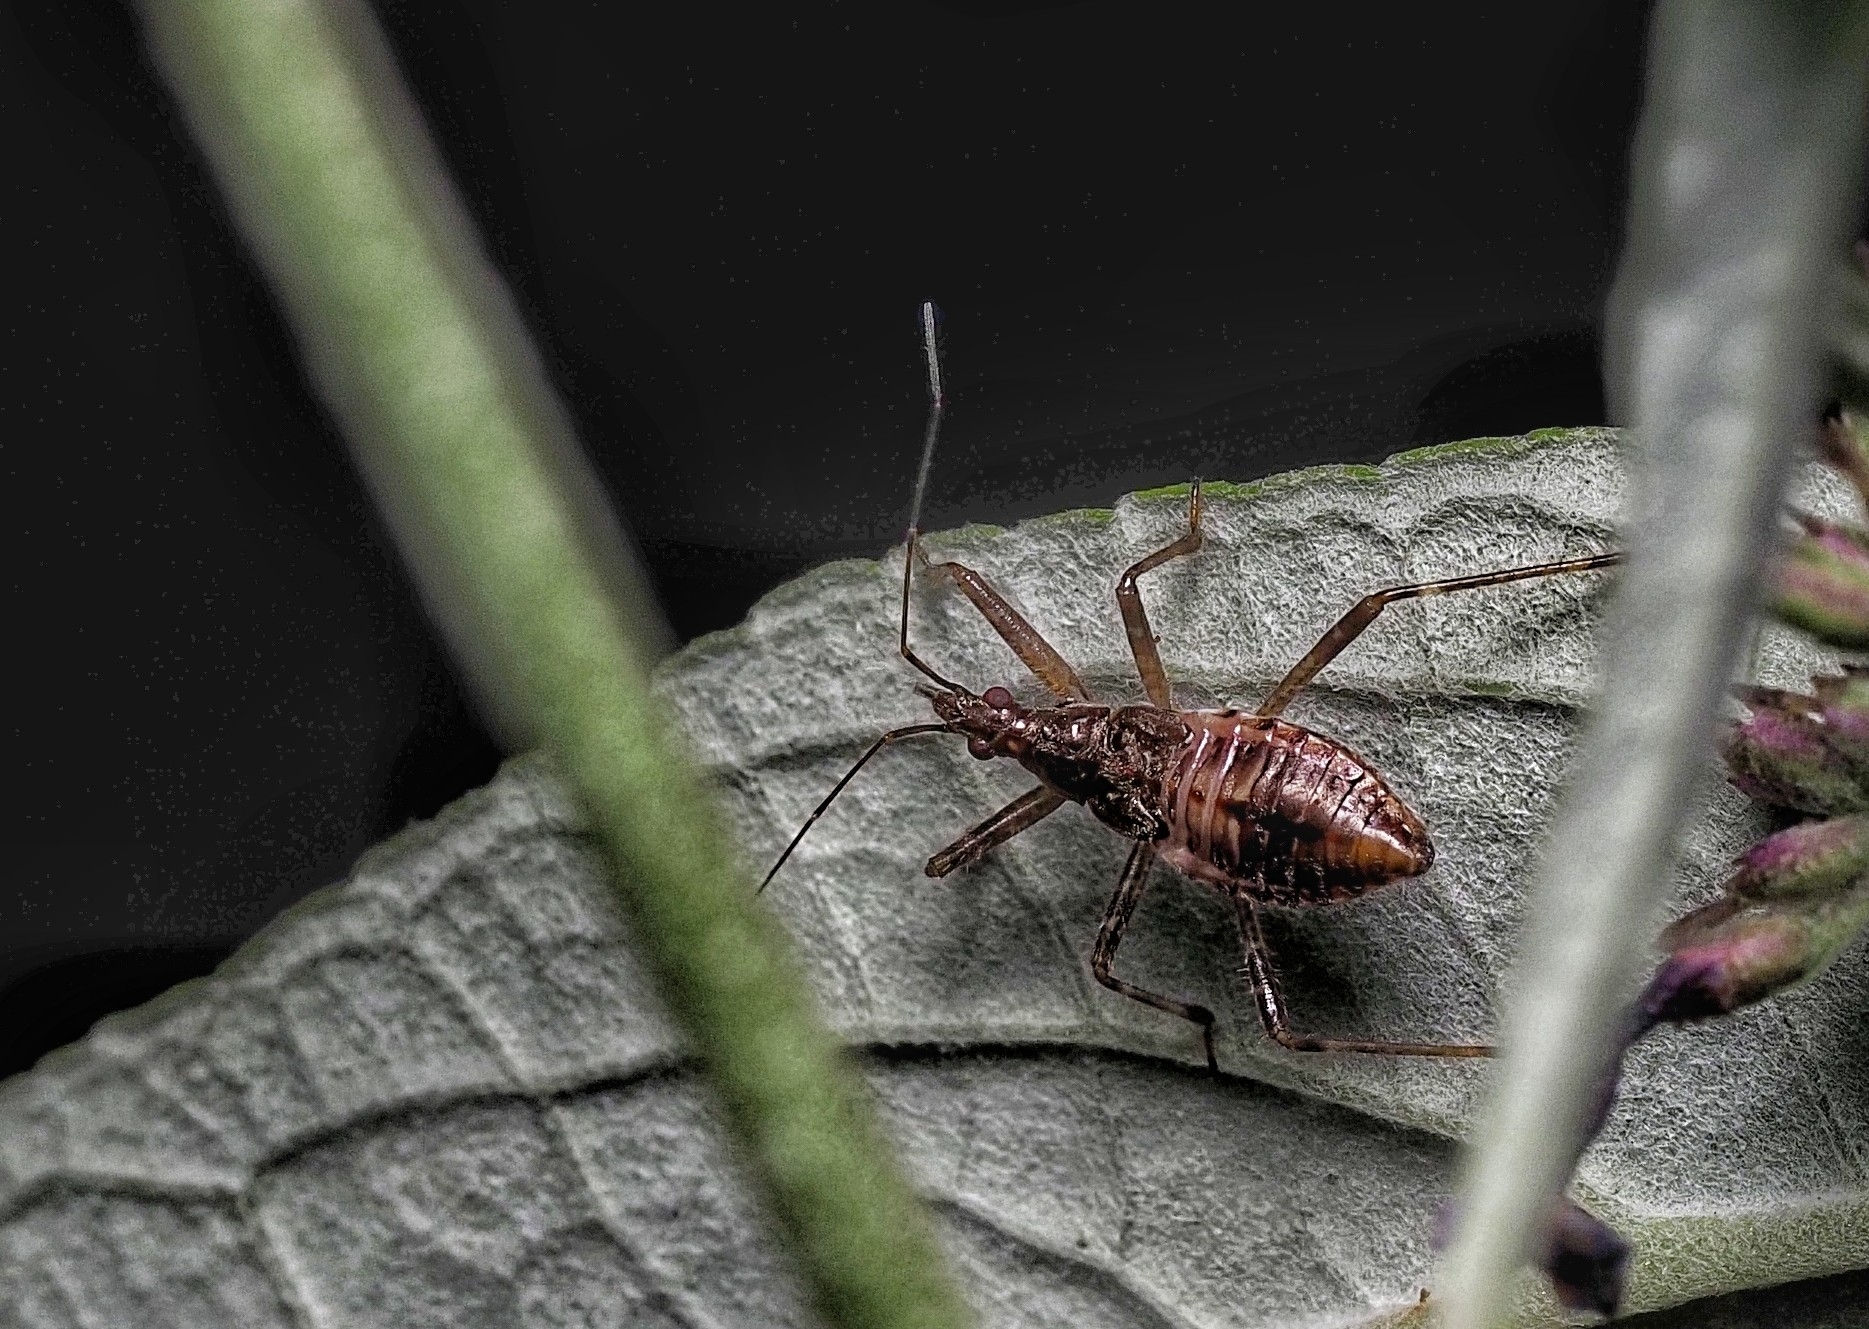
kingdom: Animalia
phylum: Arthropoda
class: Insecta
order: Hemiptera
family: Nabidae
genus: Himacerus
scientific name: Himacerus apterus
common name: Tree damsel bug
